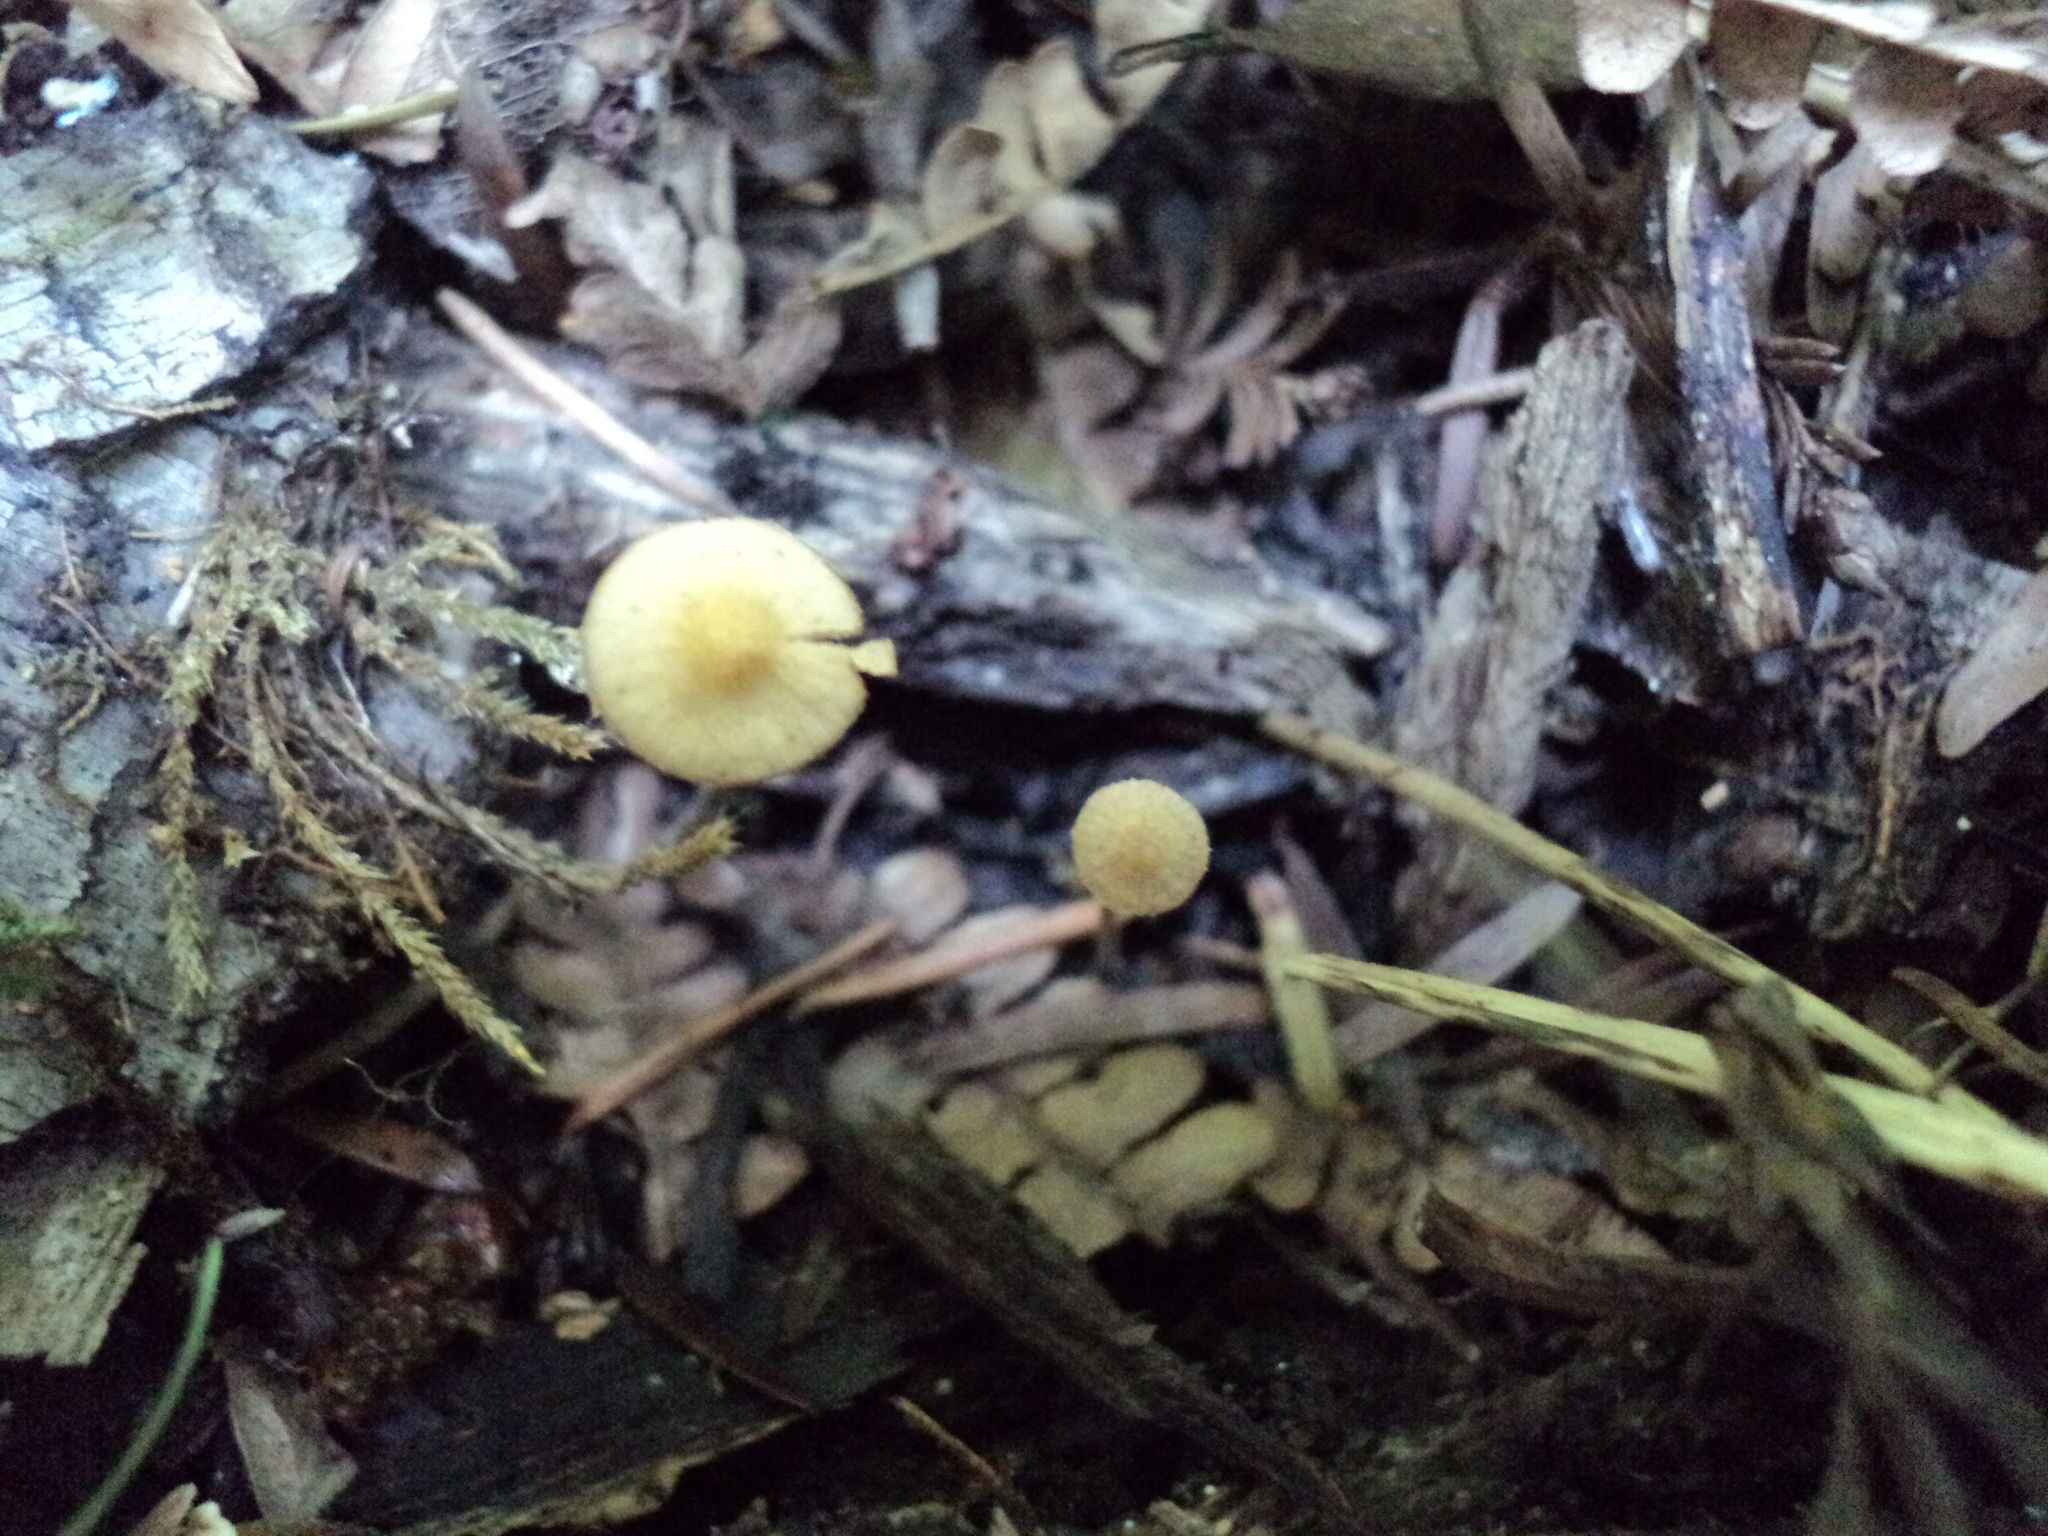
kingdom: Fungi
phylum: Basidiomycota
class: Agaricomycetes
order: Agaricales
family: Bolbitiaceae
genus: Conocybe
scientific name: Conocybe rugosa
